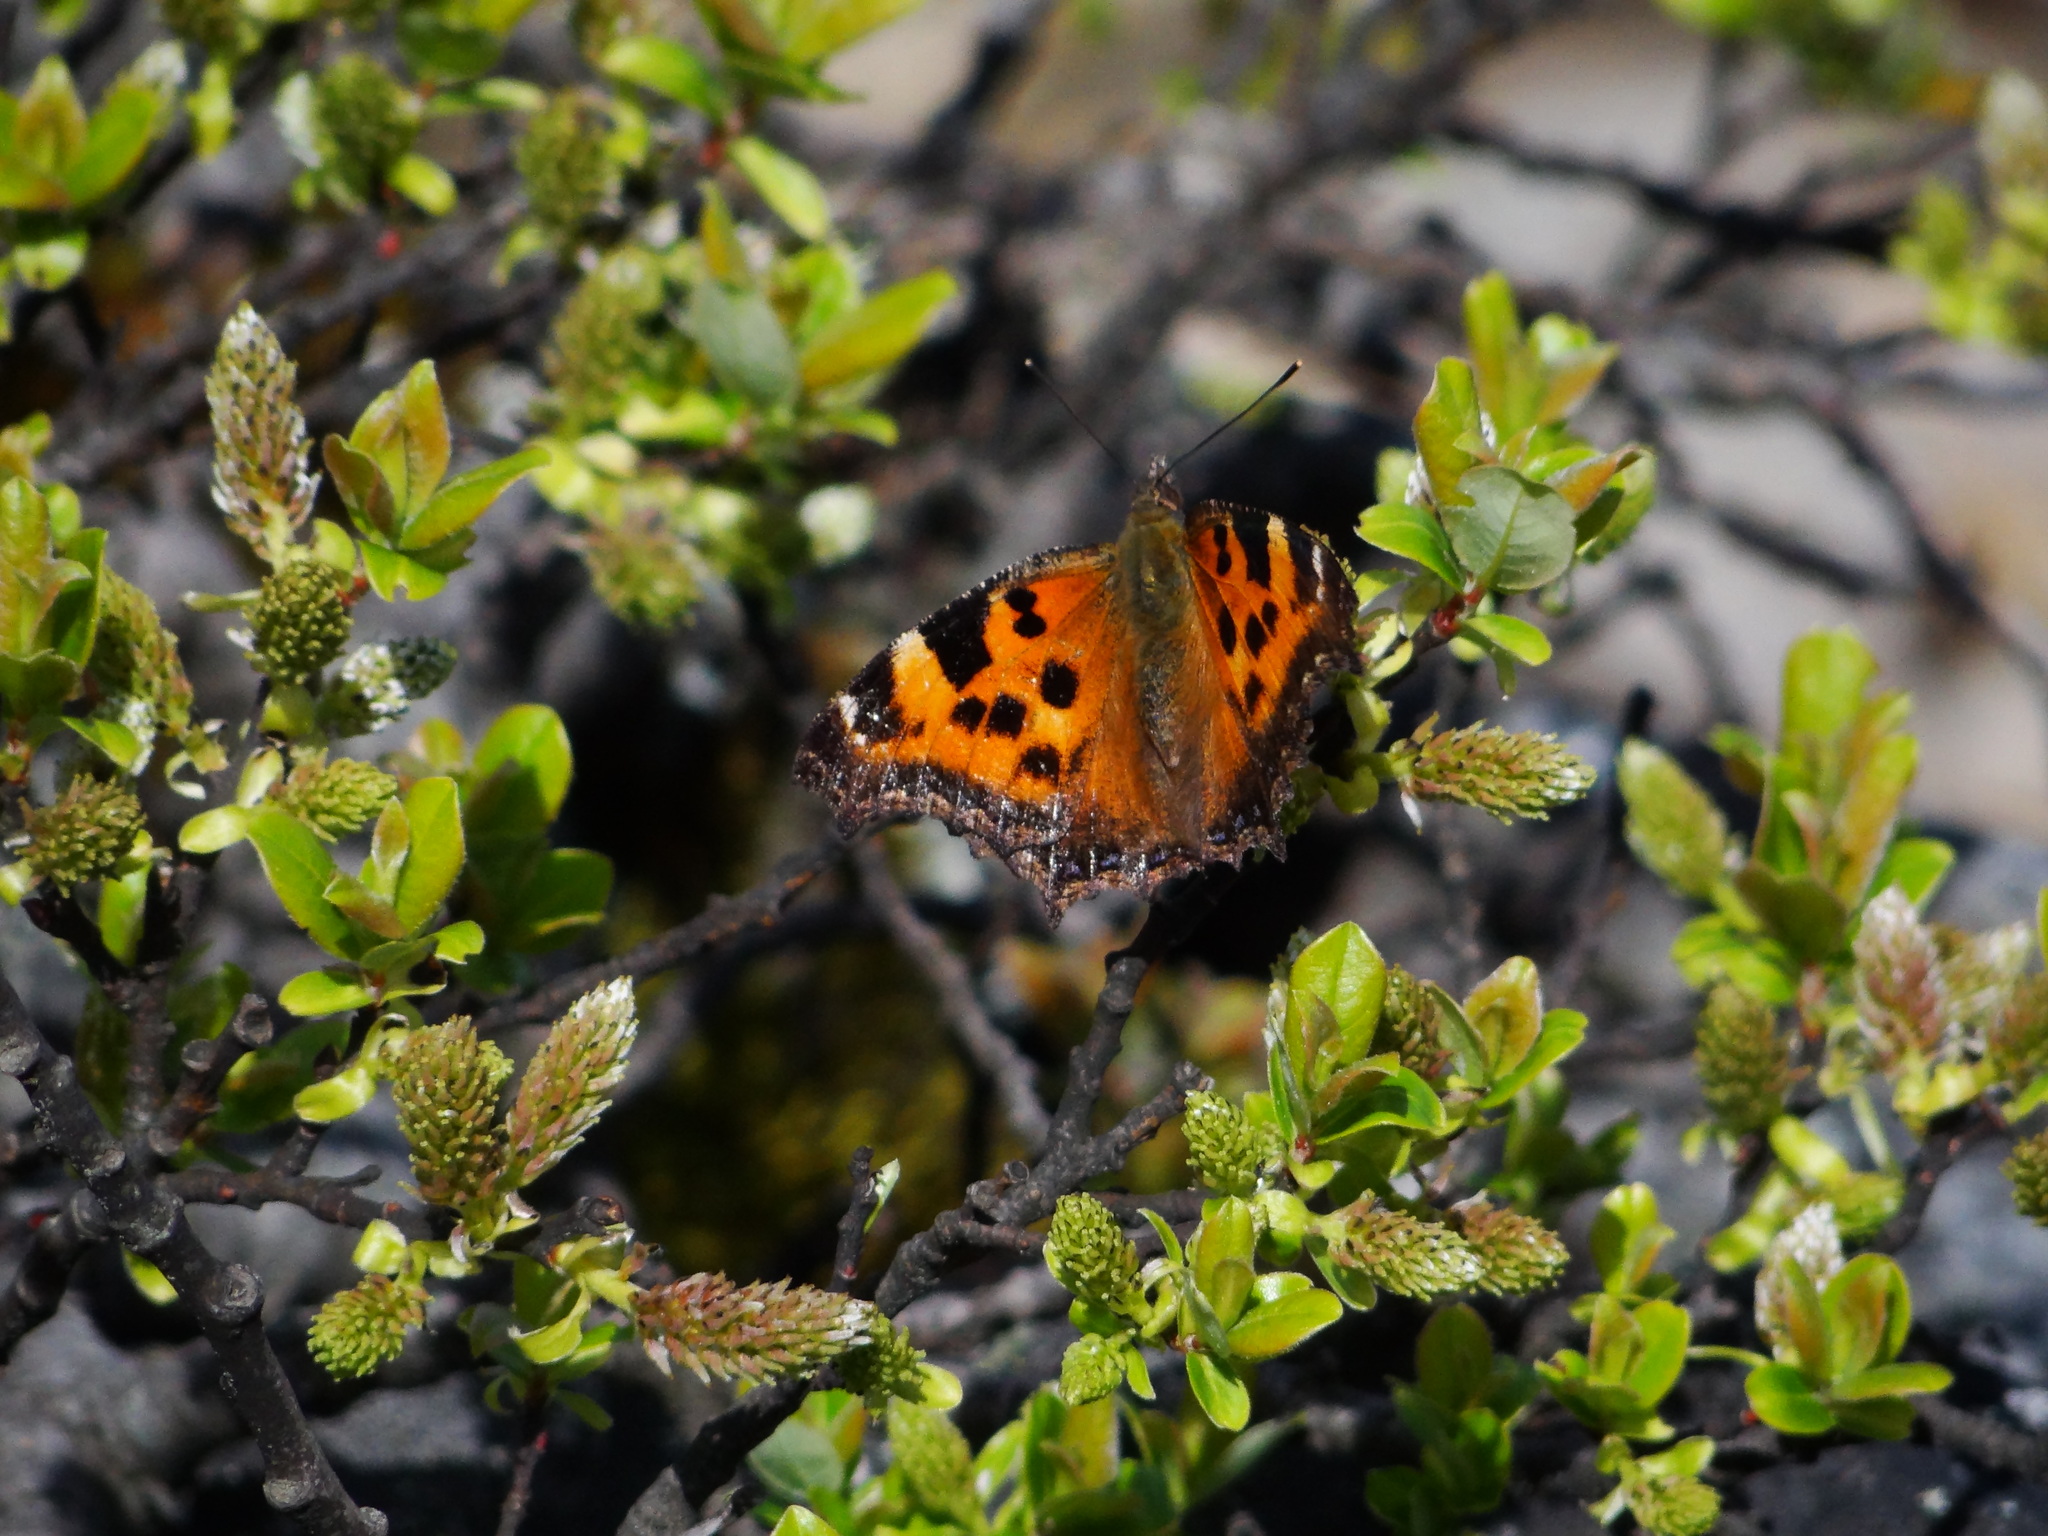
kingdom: Animalia
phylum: Arthropoda
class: Insecta
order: Lepidoptera
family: Nymphalidae
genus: Nymphalis
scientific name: Nymphalis xanthomelas
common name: Scarce tortoiseshell
